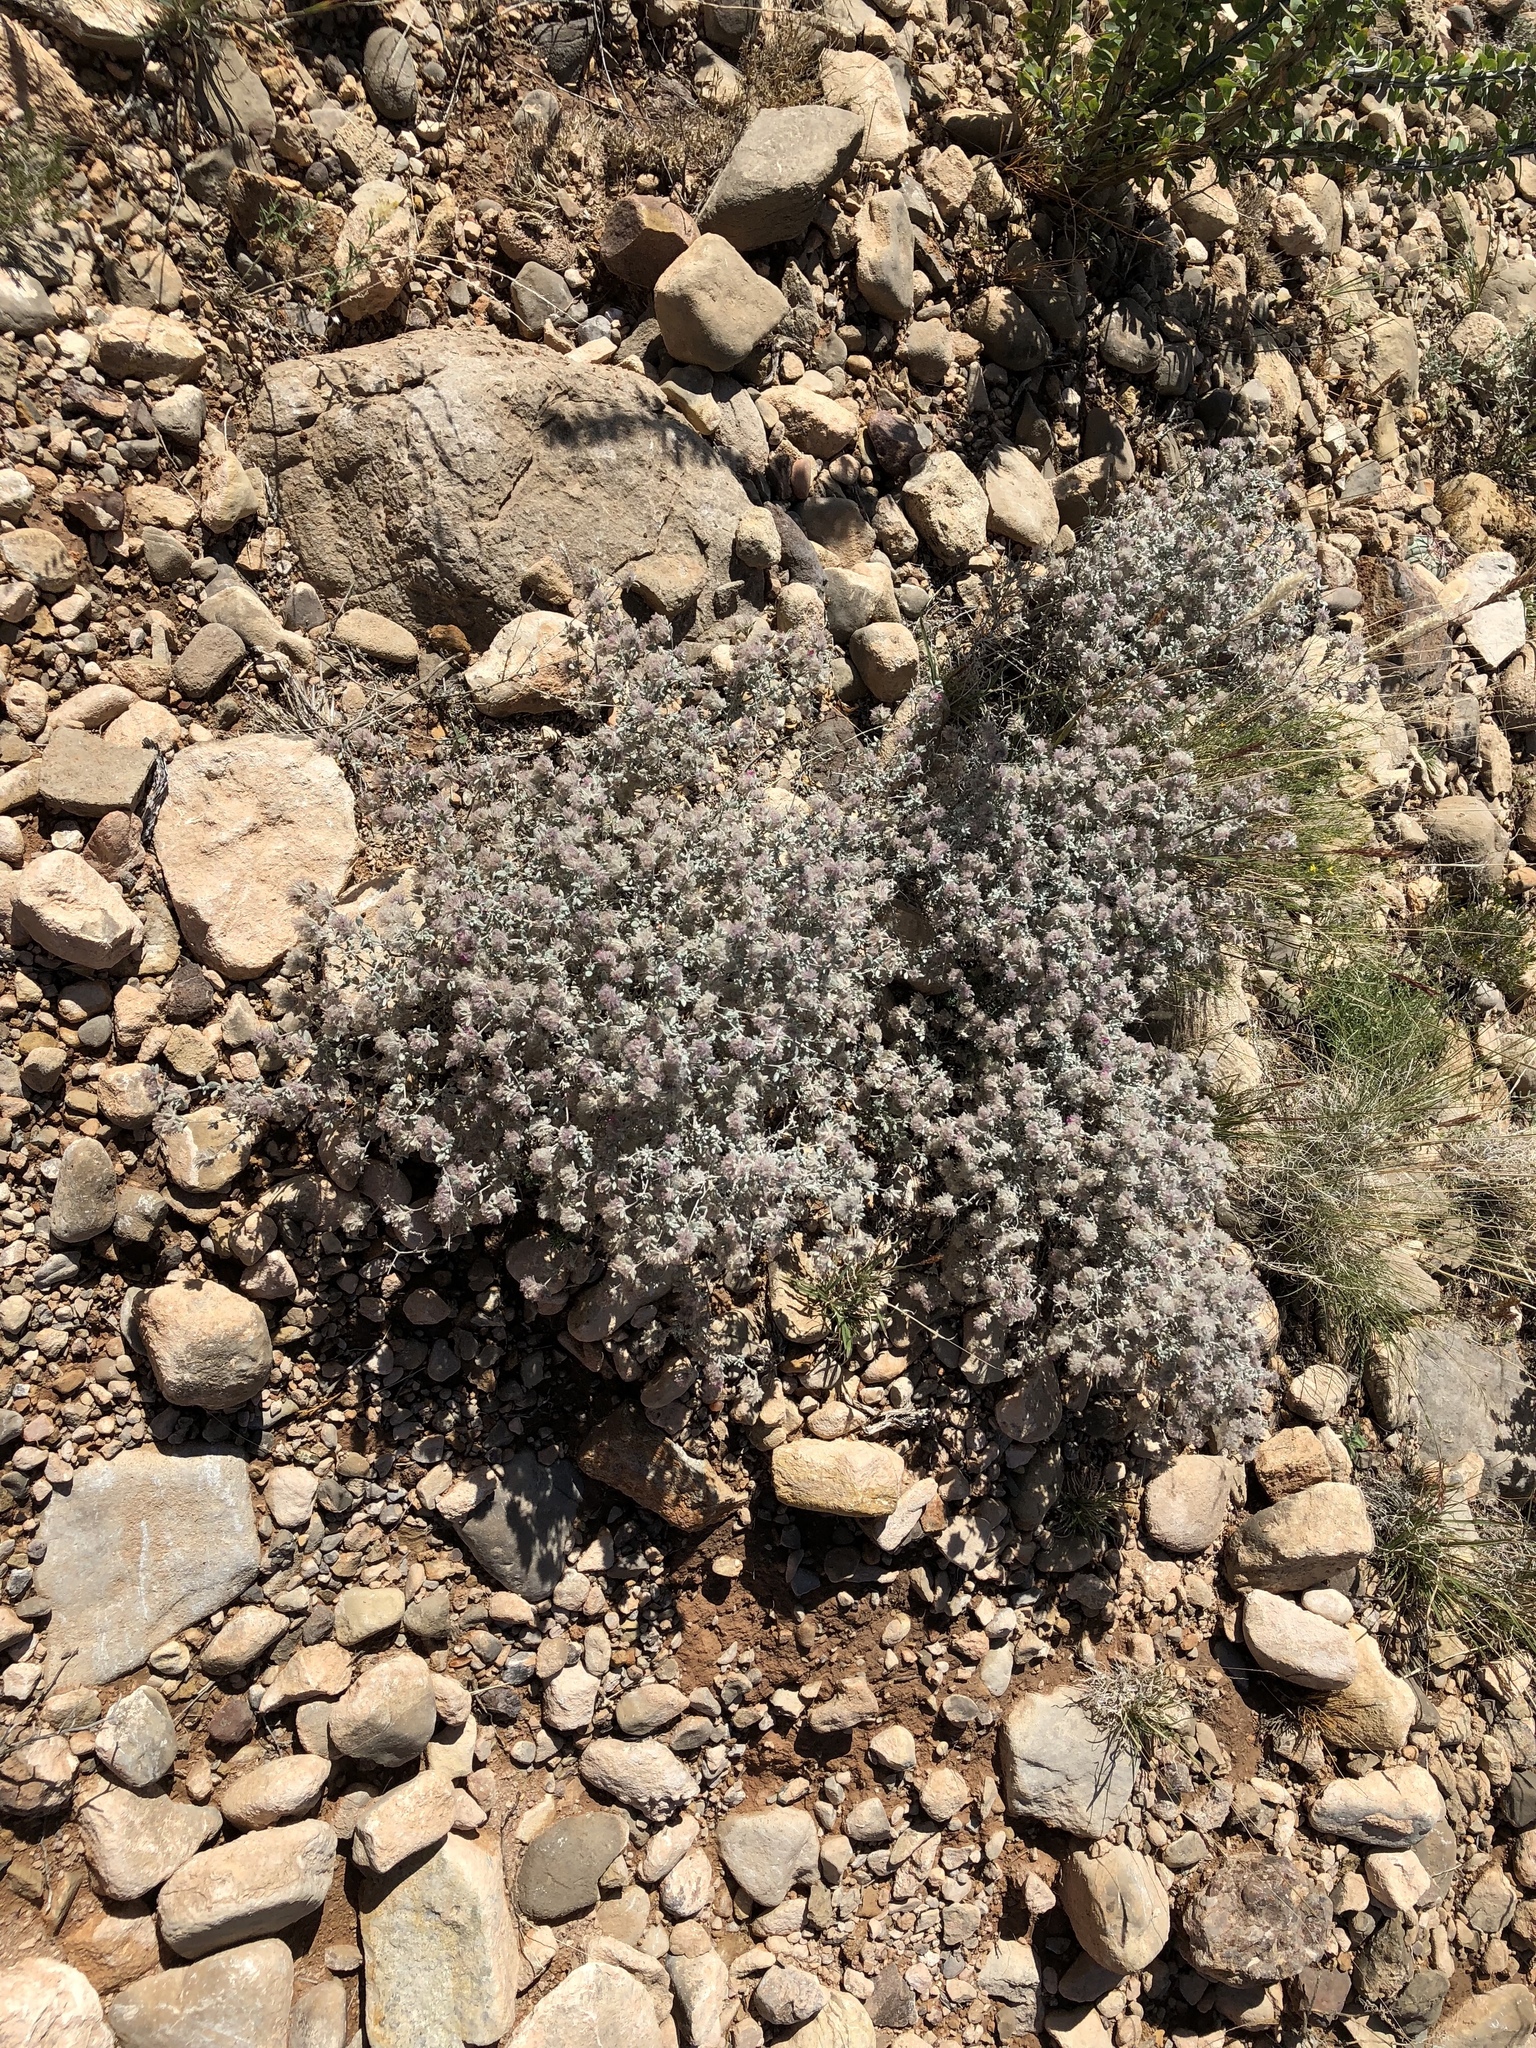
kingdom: Plantae
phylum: Tracheophyta
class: Magnoliopsida
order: Boraginales
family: Ehretiaceae
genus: Tiquilia
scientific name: Tiquilia greggii
